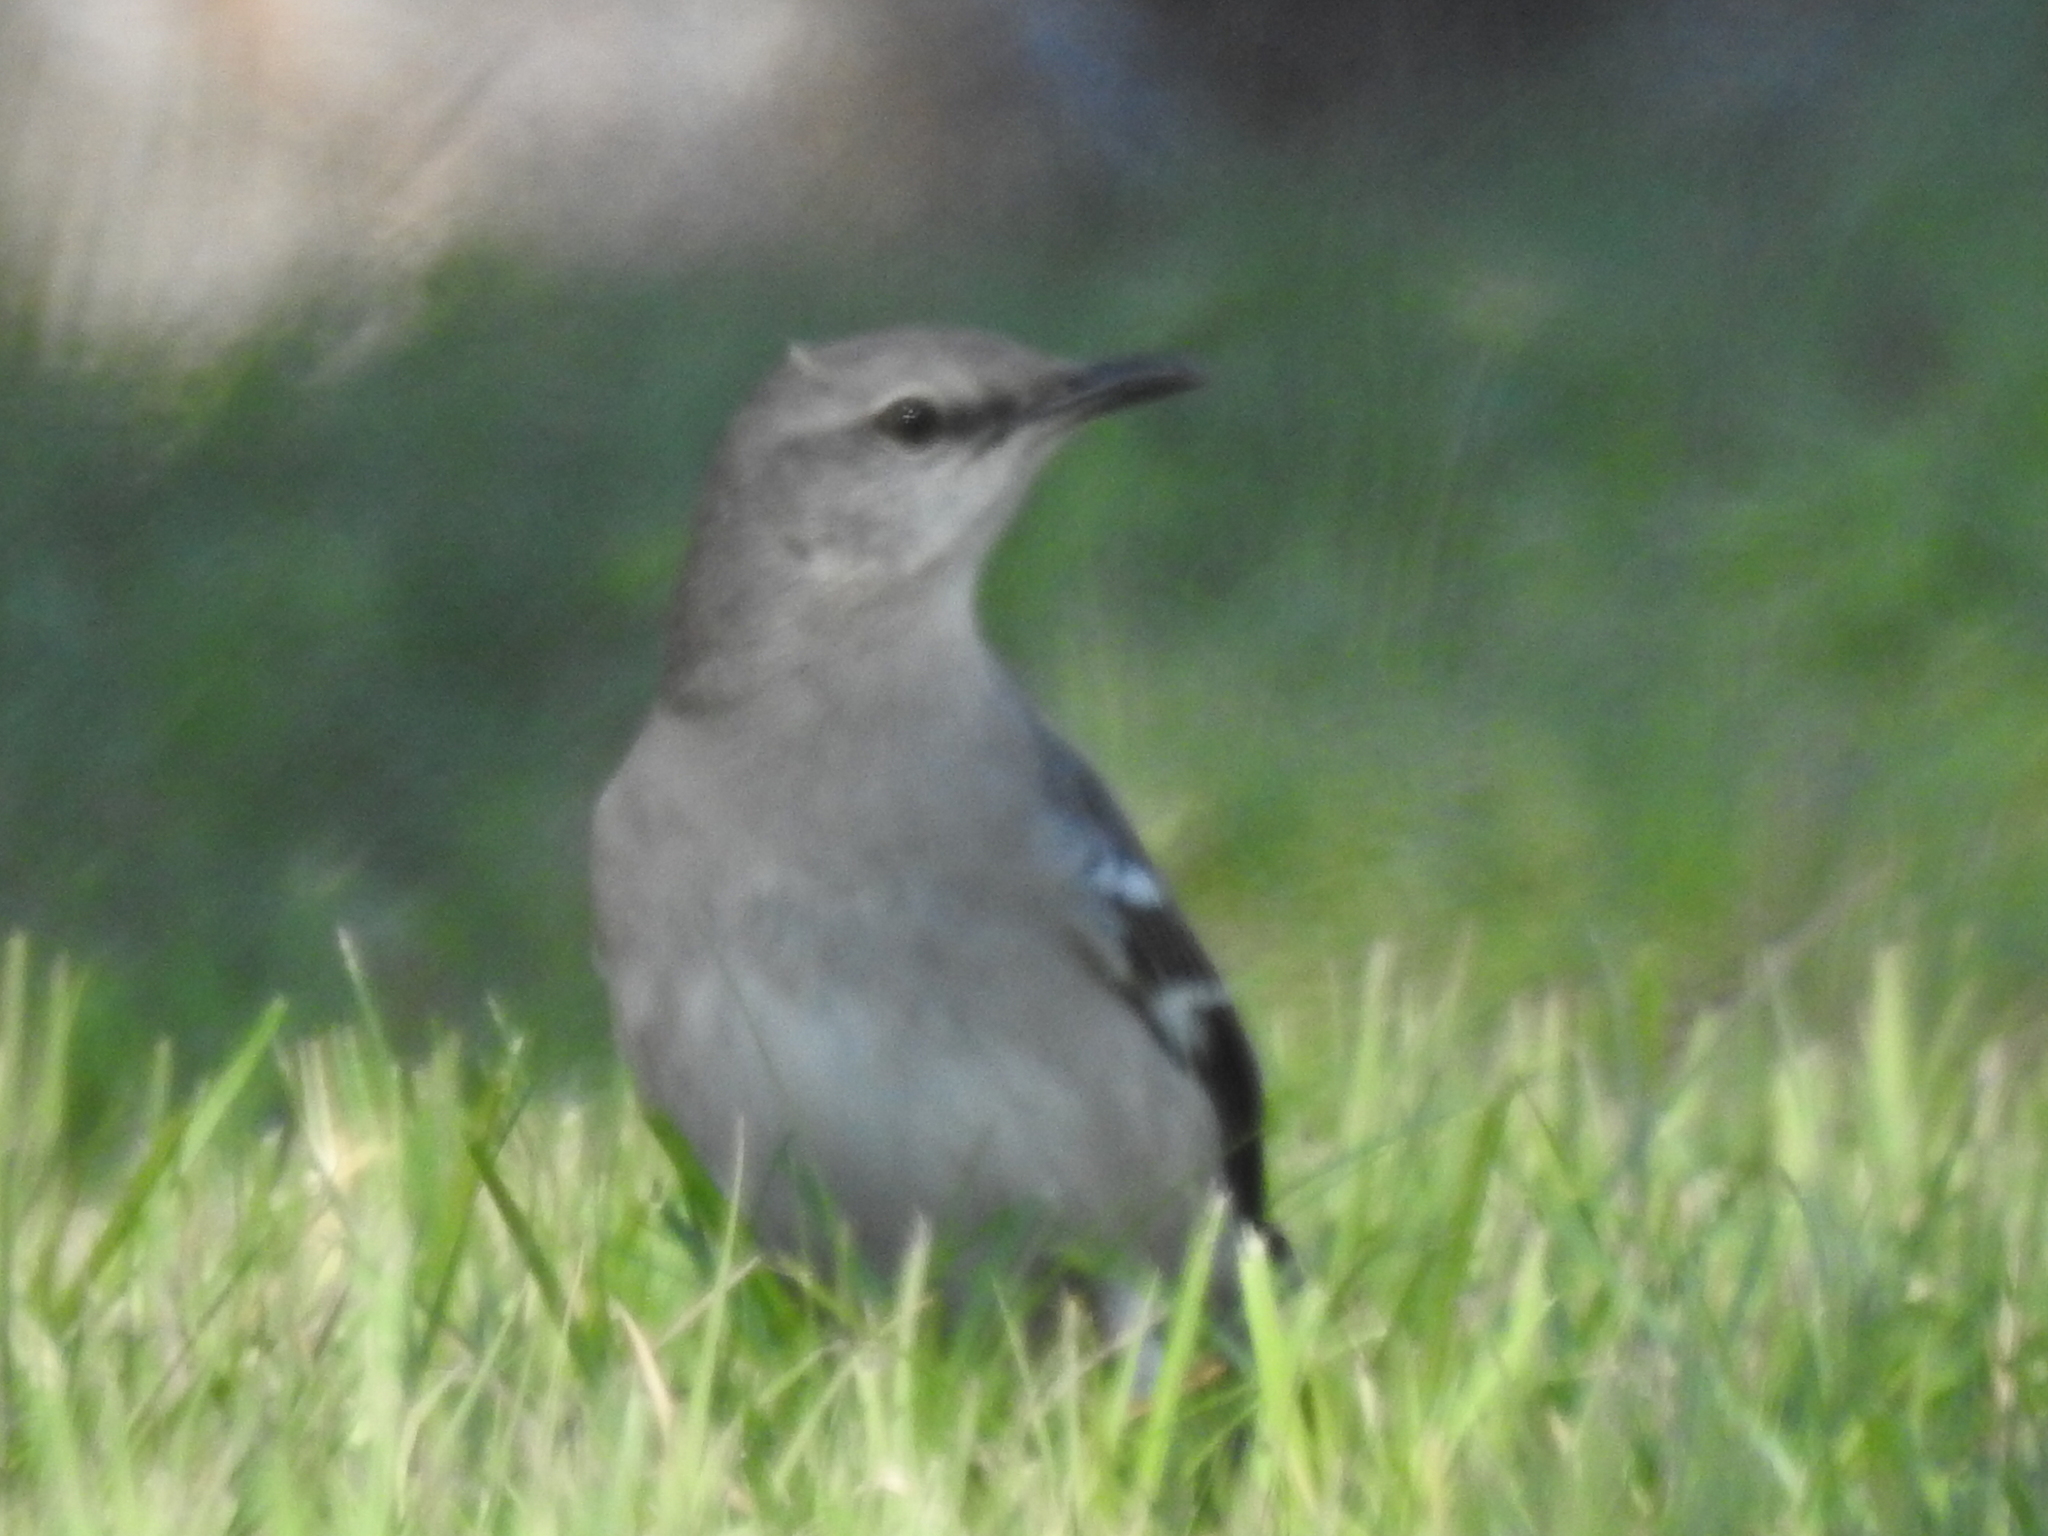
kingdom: Animalia
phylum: Chordata
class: Aves
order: Passeriformes
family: Mimidae
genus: Mimus
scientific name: Mimus polyglottos
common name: Northern mockingbird
